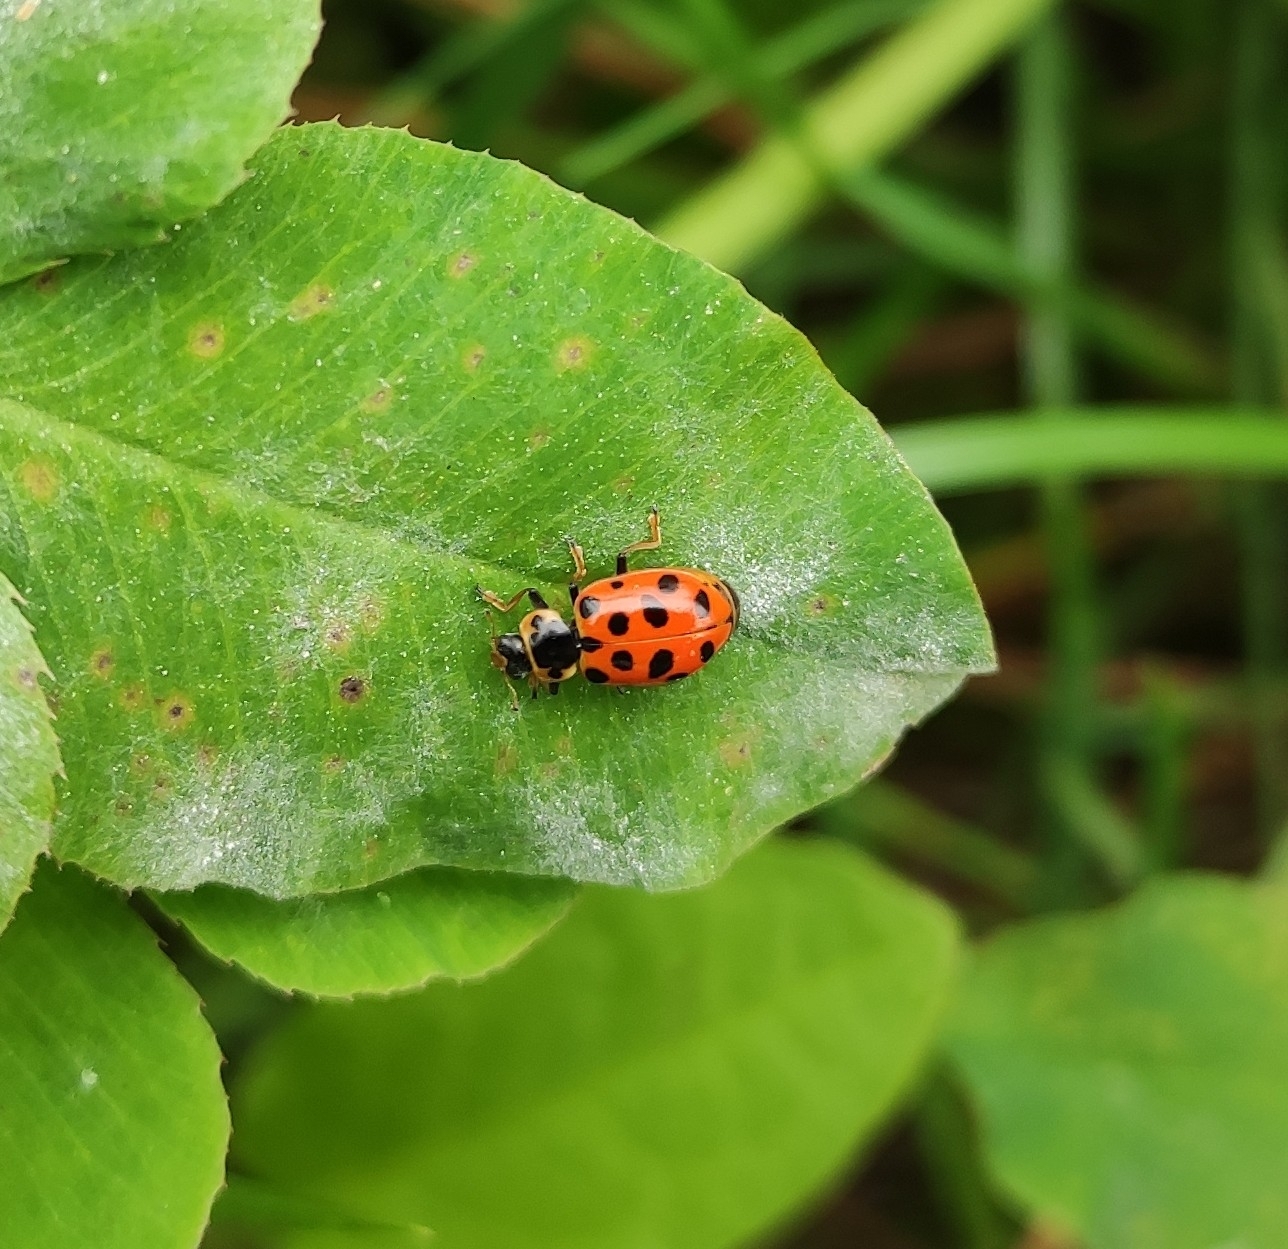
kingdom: Animalia
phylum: Arthropoda
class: Insecta
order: Coleoptera
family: Coccinellidae
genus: Hippodamia
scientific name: Hippodamia tredecimpunctata
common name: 13-spot ladybird
